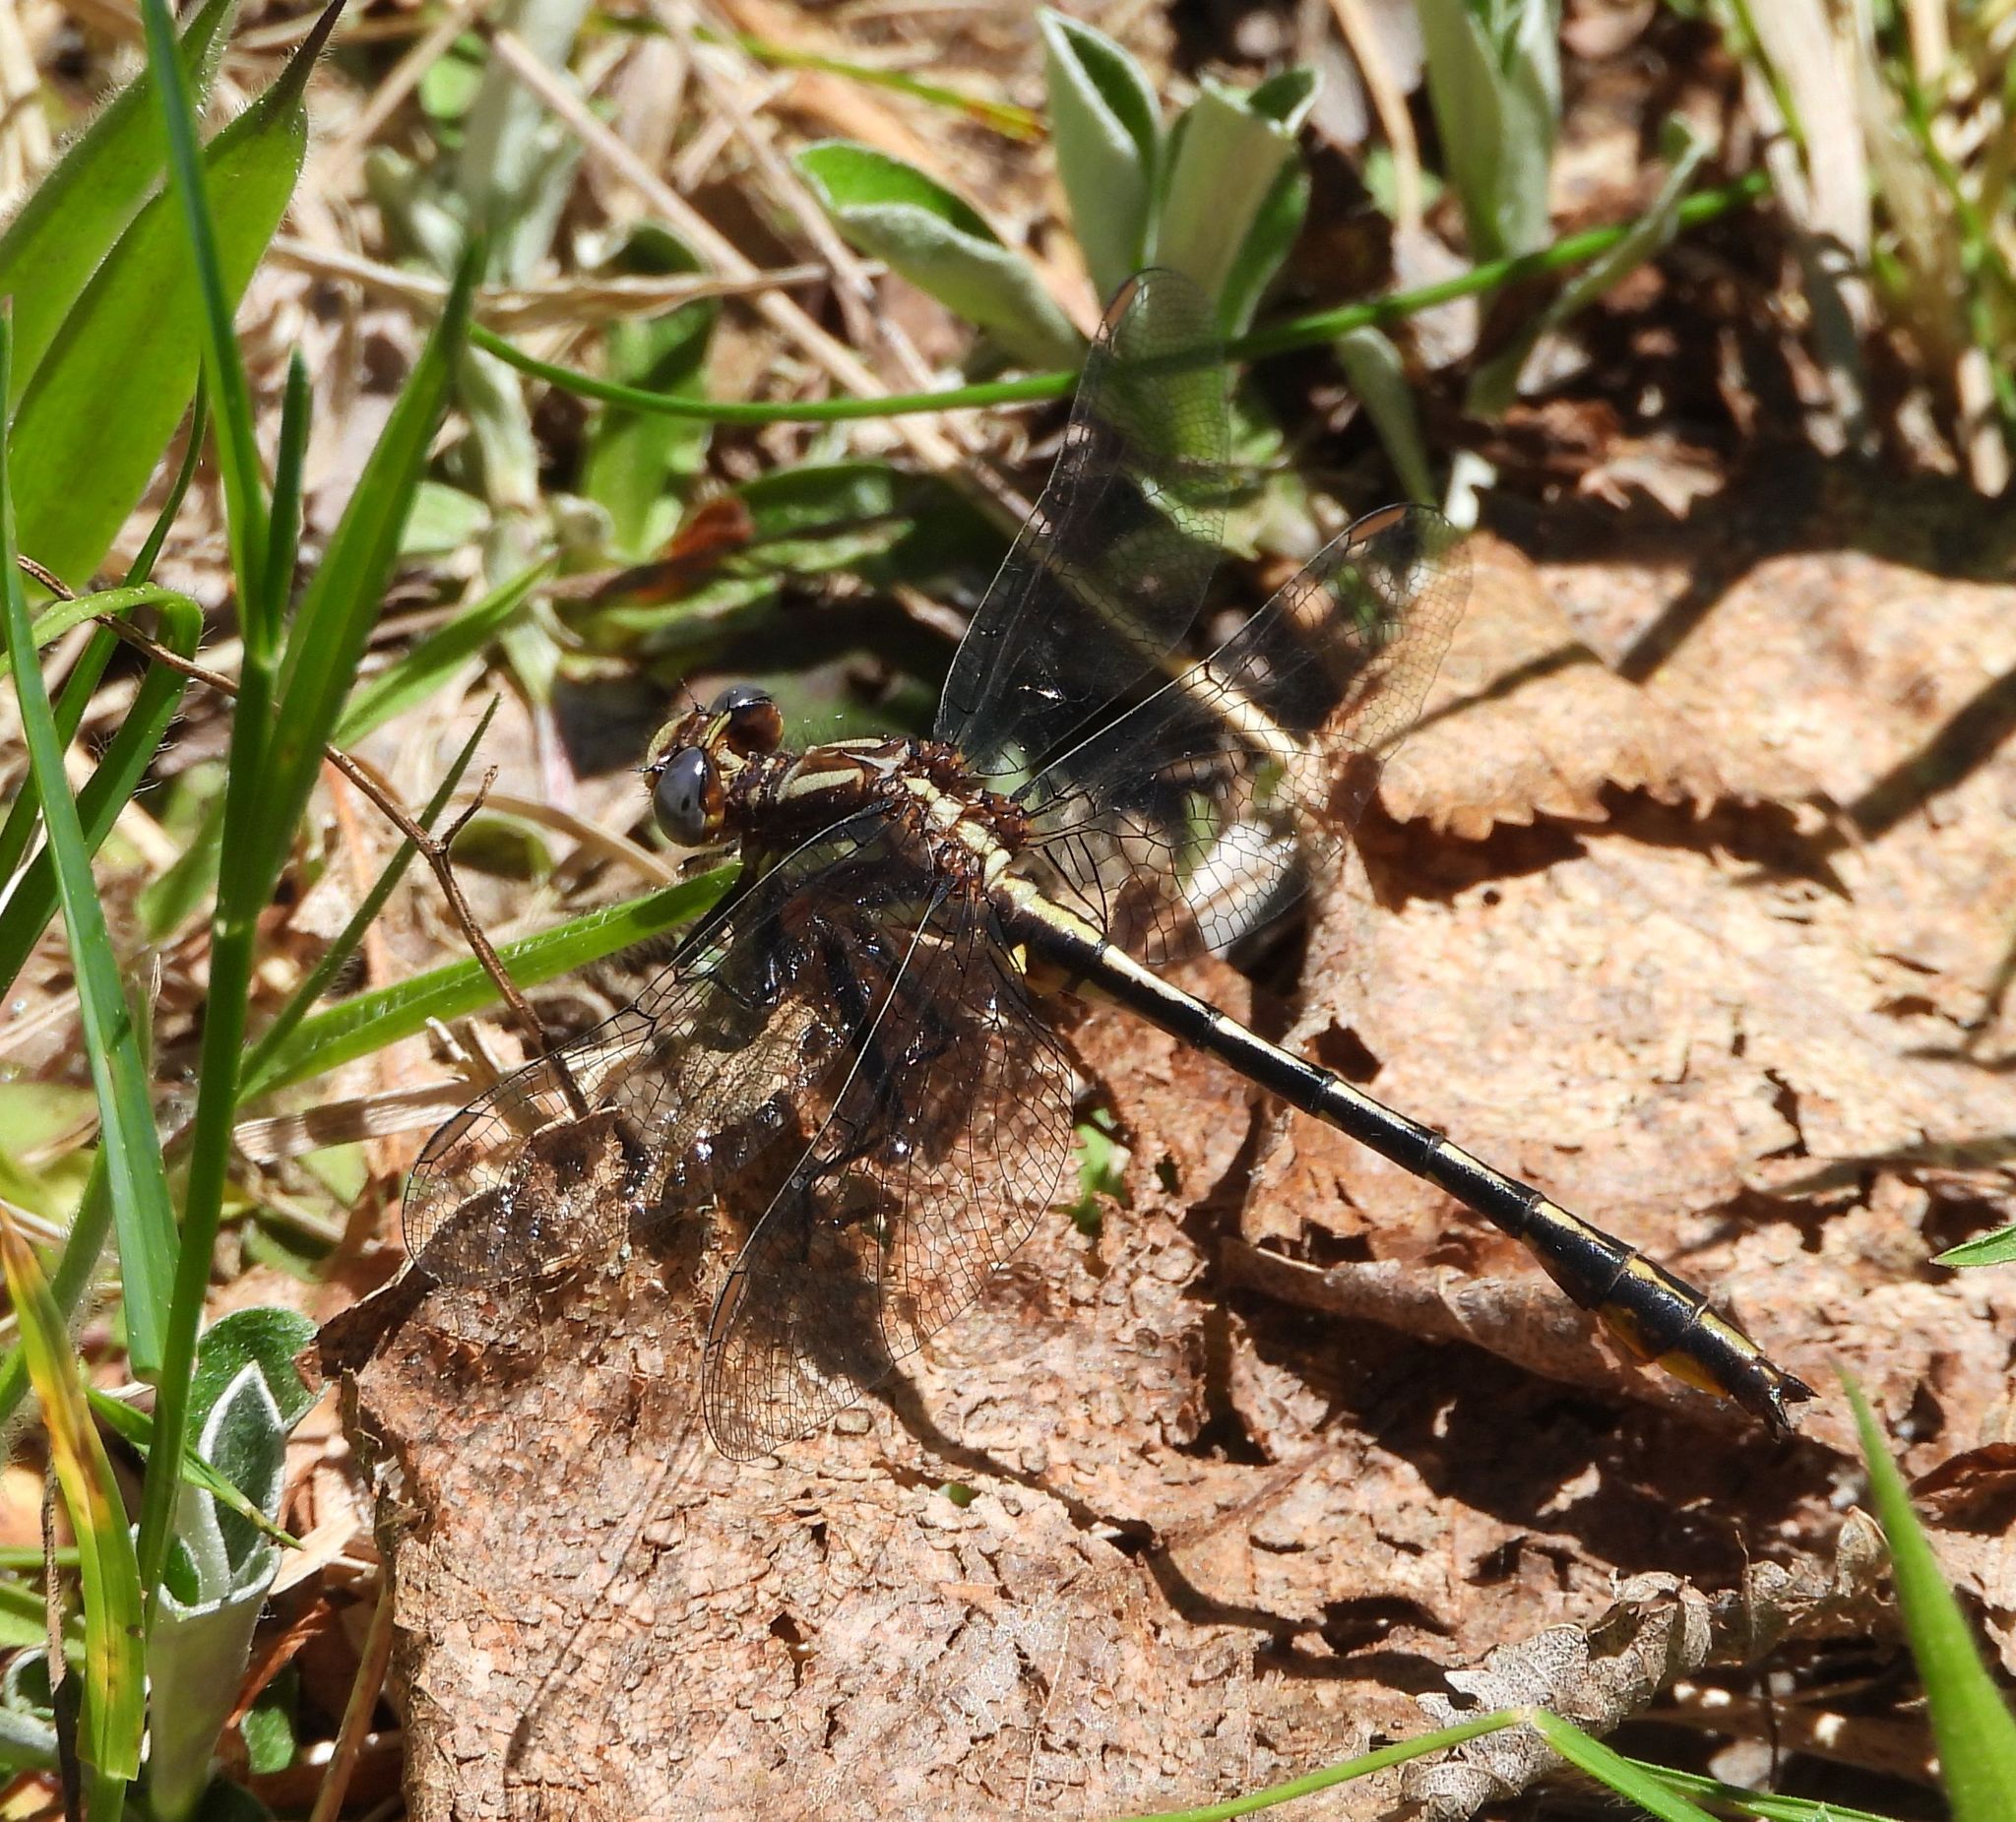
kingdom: Animalia
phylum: Arthropoda
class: Insecta
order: Odonata
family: Gomphidae
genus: Phanogomphus
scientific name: Phanogomphus exilis
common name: Lancet clubtail
